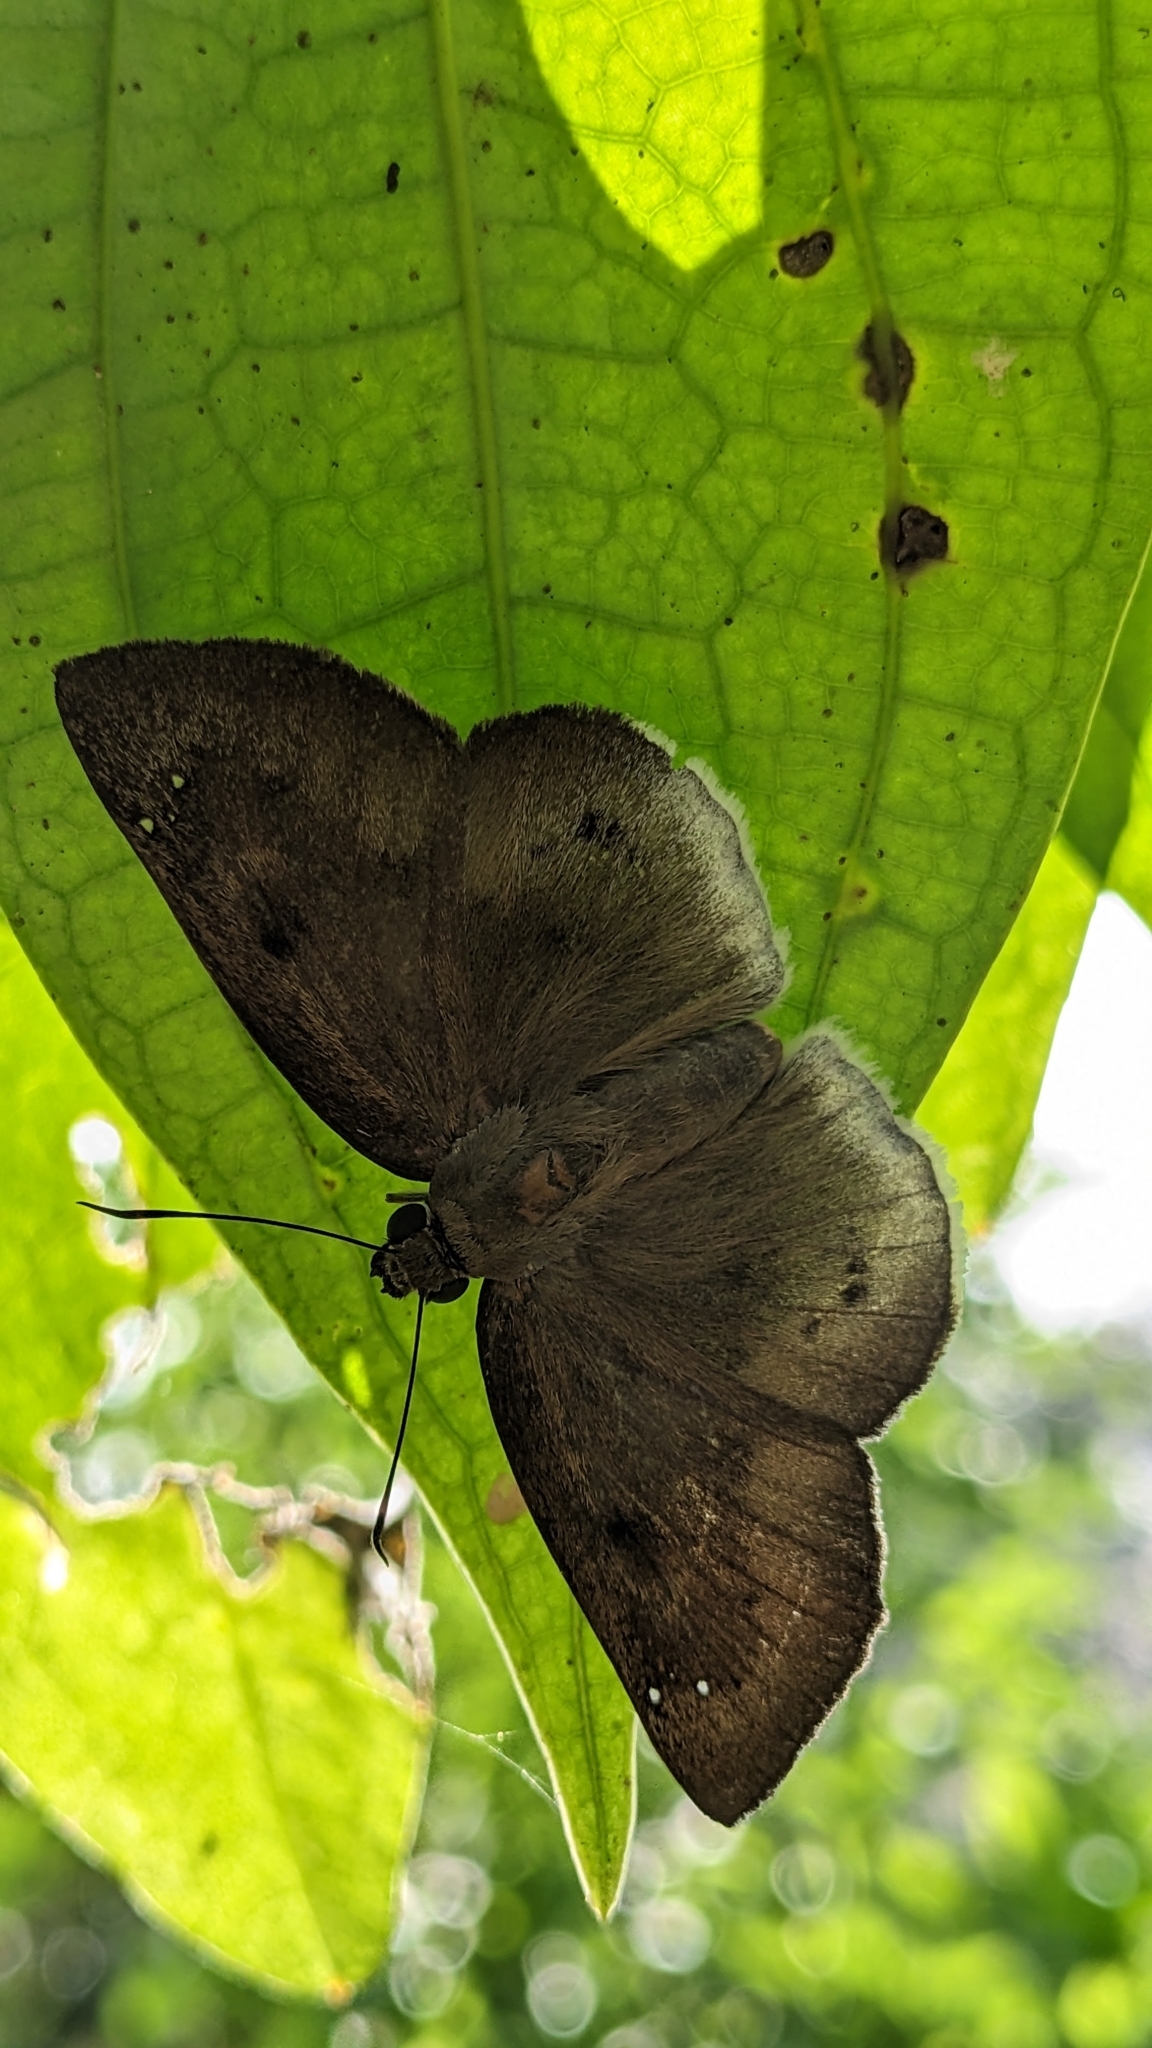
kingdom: Animalia
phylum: Arthropoda
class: Insecta
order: Lepidoptera
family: Hesperiidae
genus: Tagiades
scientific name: Tagiades gana
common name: Suffused snow flat
